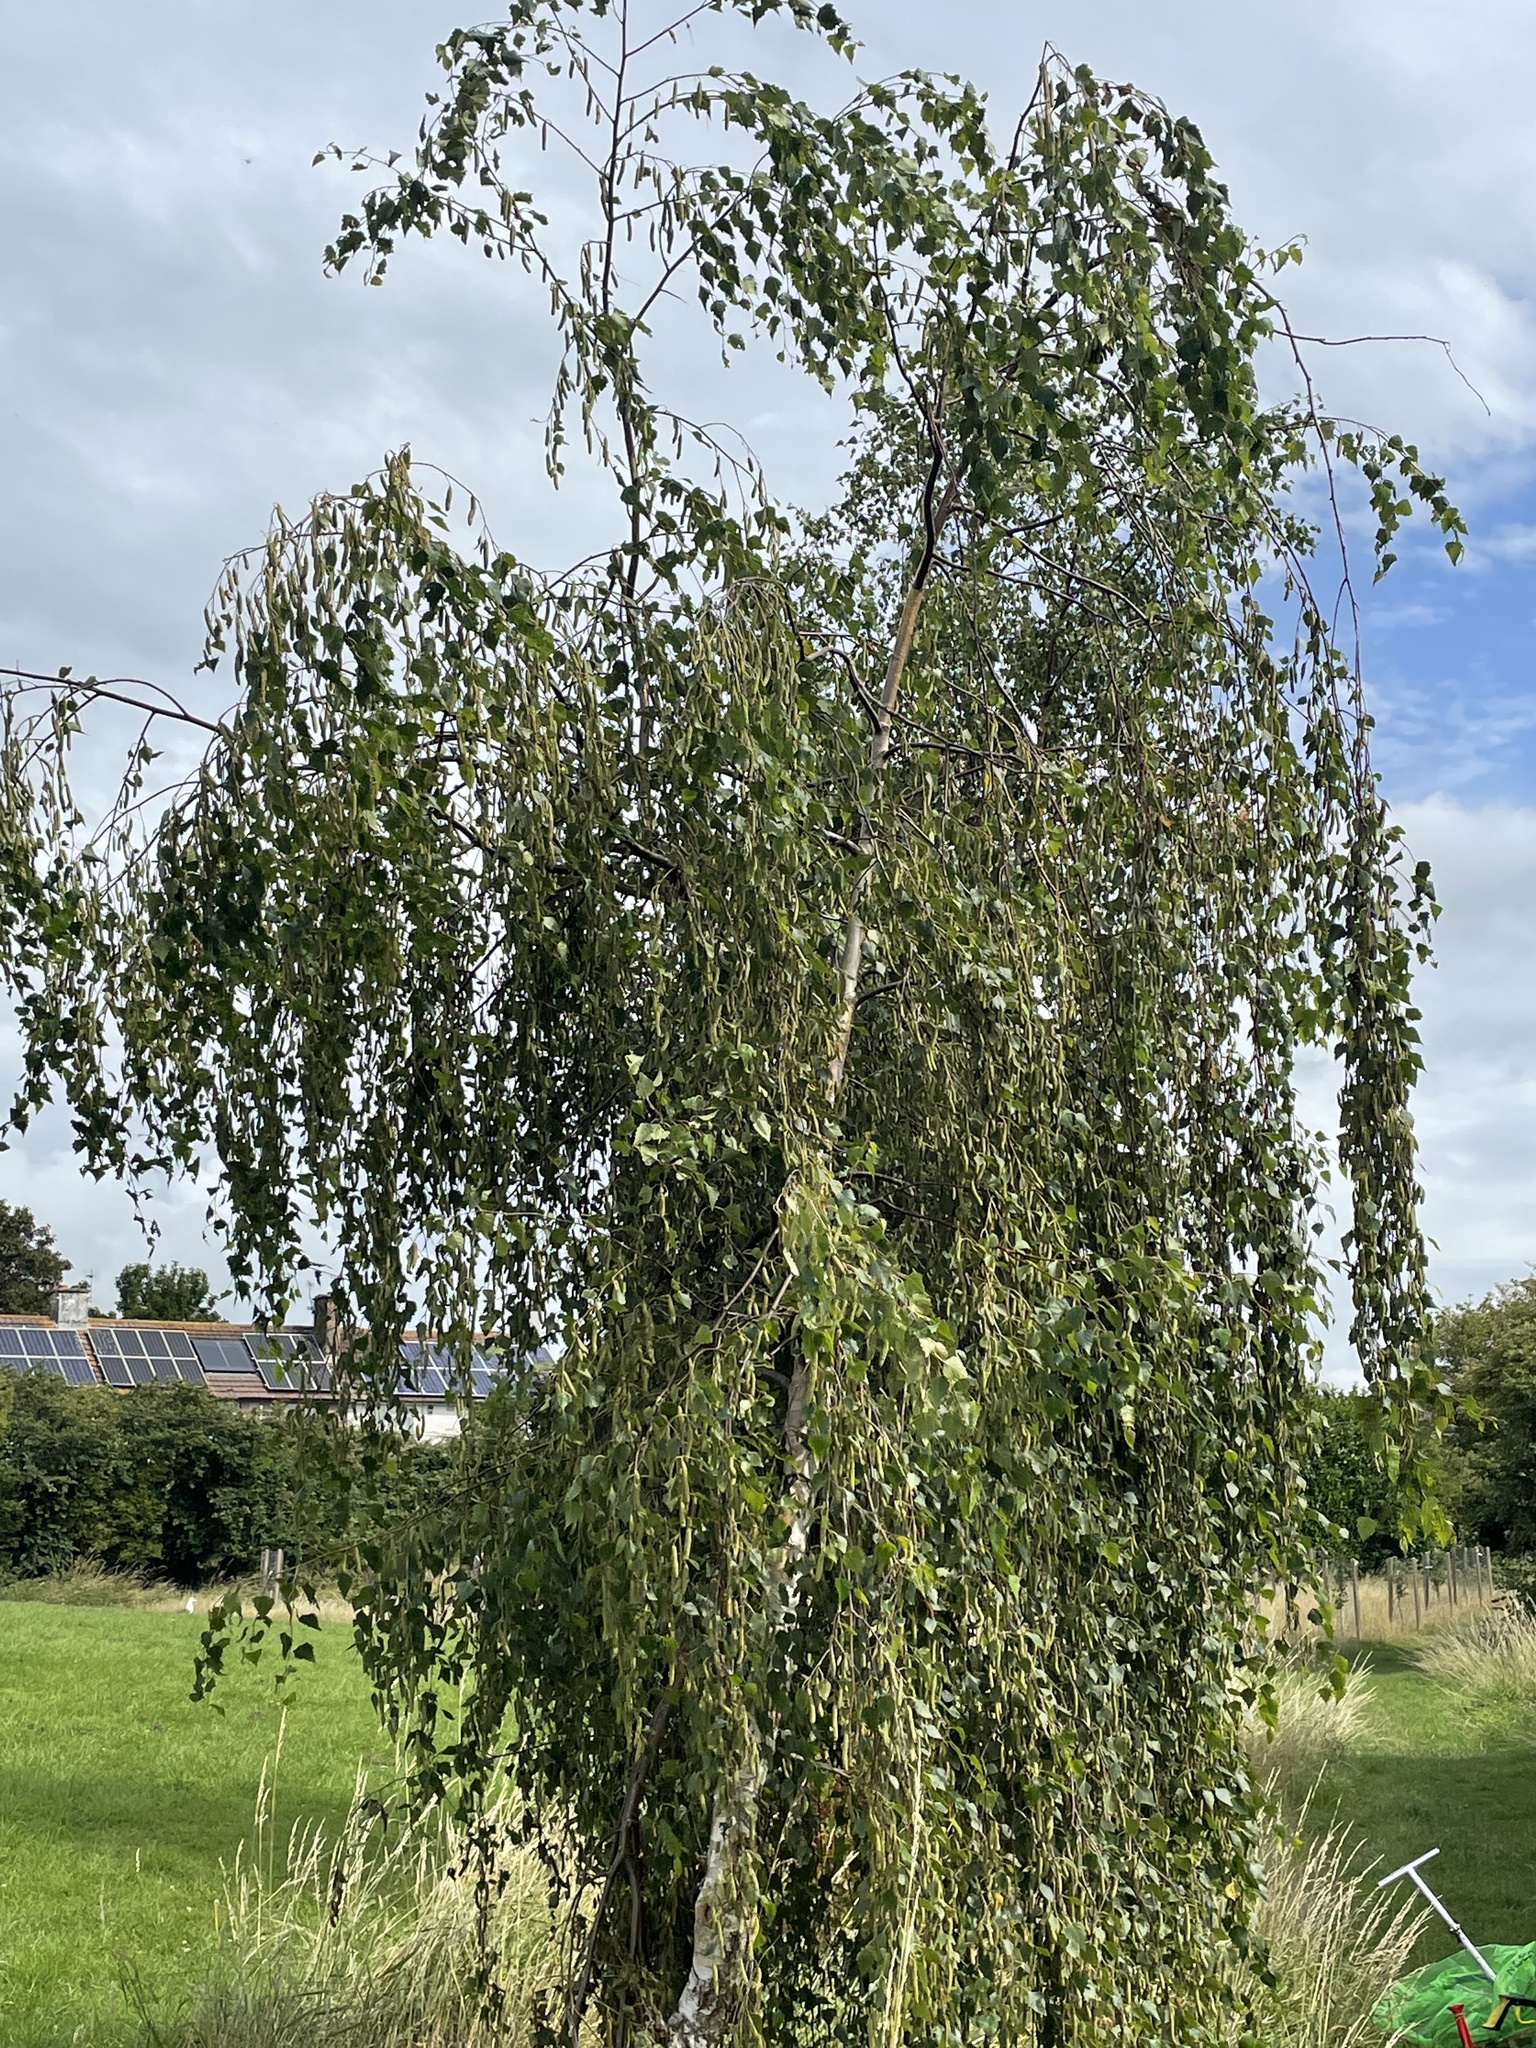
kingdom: Plantae
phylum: Tracheophyta
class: Magnoliopsida
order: Fagales
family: Betulaceae
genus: Betula
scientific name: Betula pendula
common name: Silver birch
